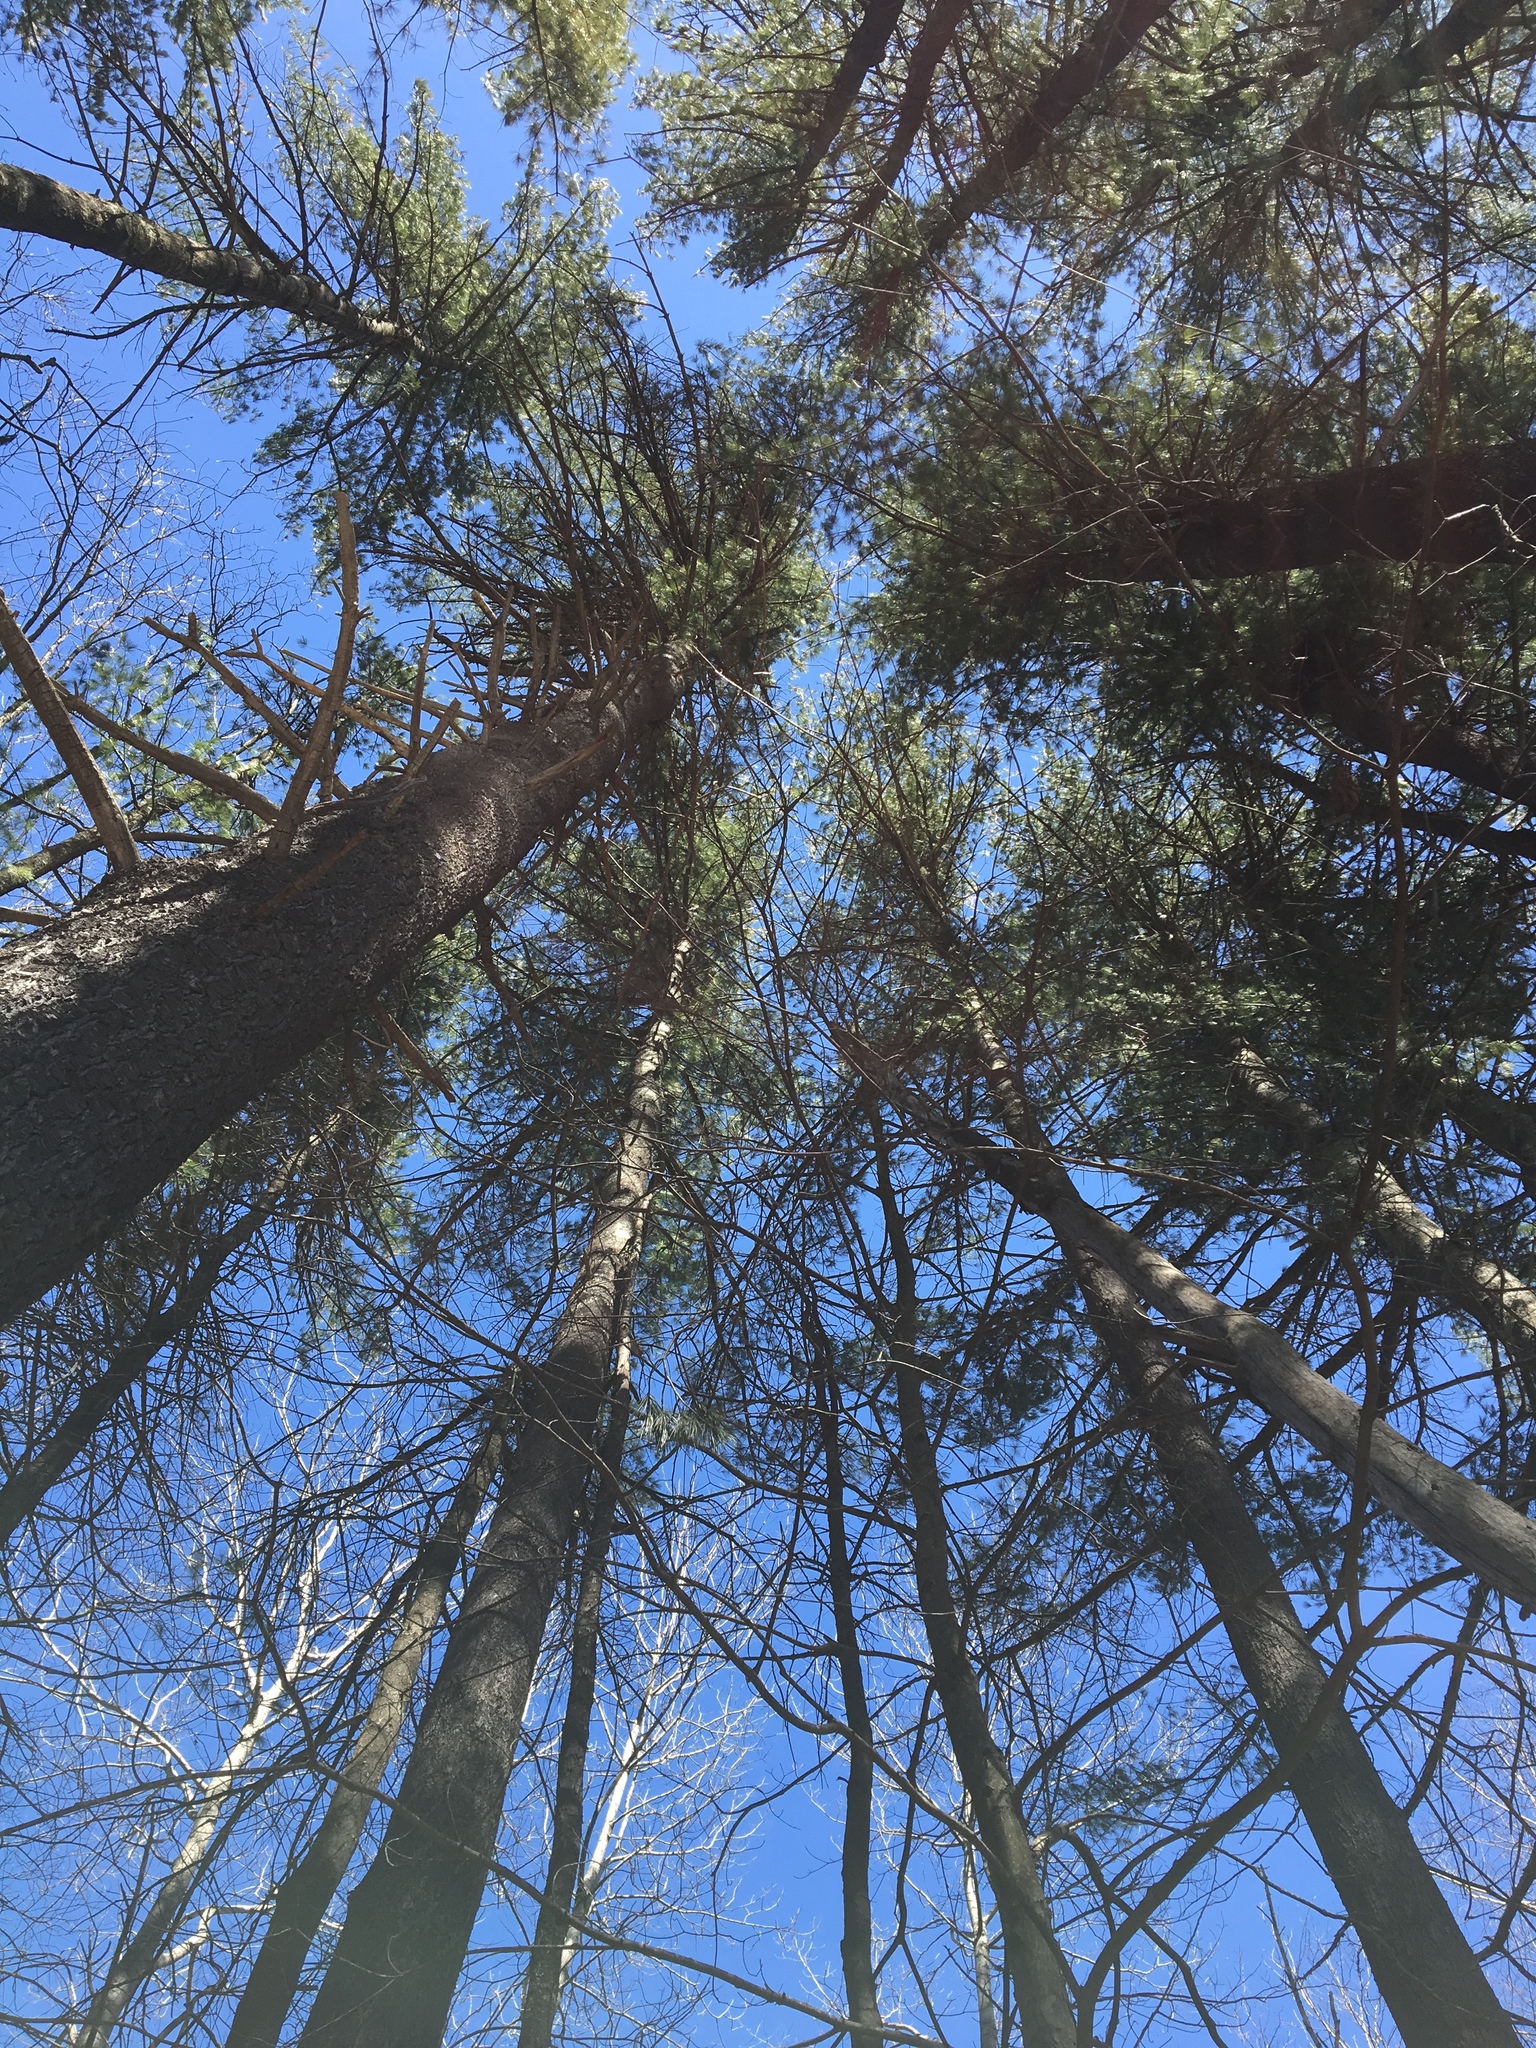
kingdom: Plantae
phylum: Tracheophyta
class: Pinopsida
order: Pinales
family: Pinaceae
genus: Pinus
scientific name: Pinus strobus
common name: Weymouth pine
